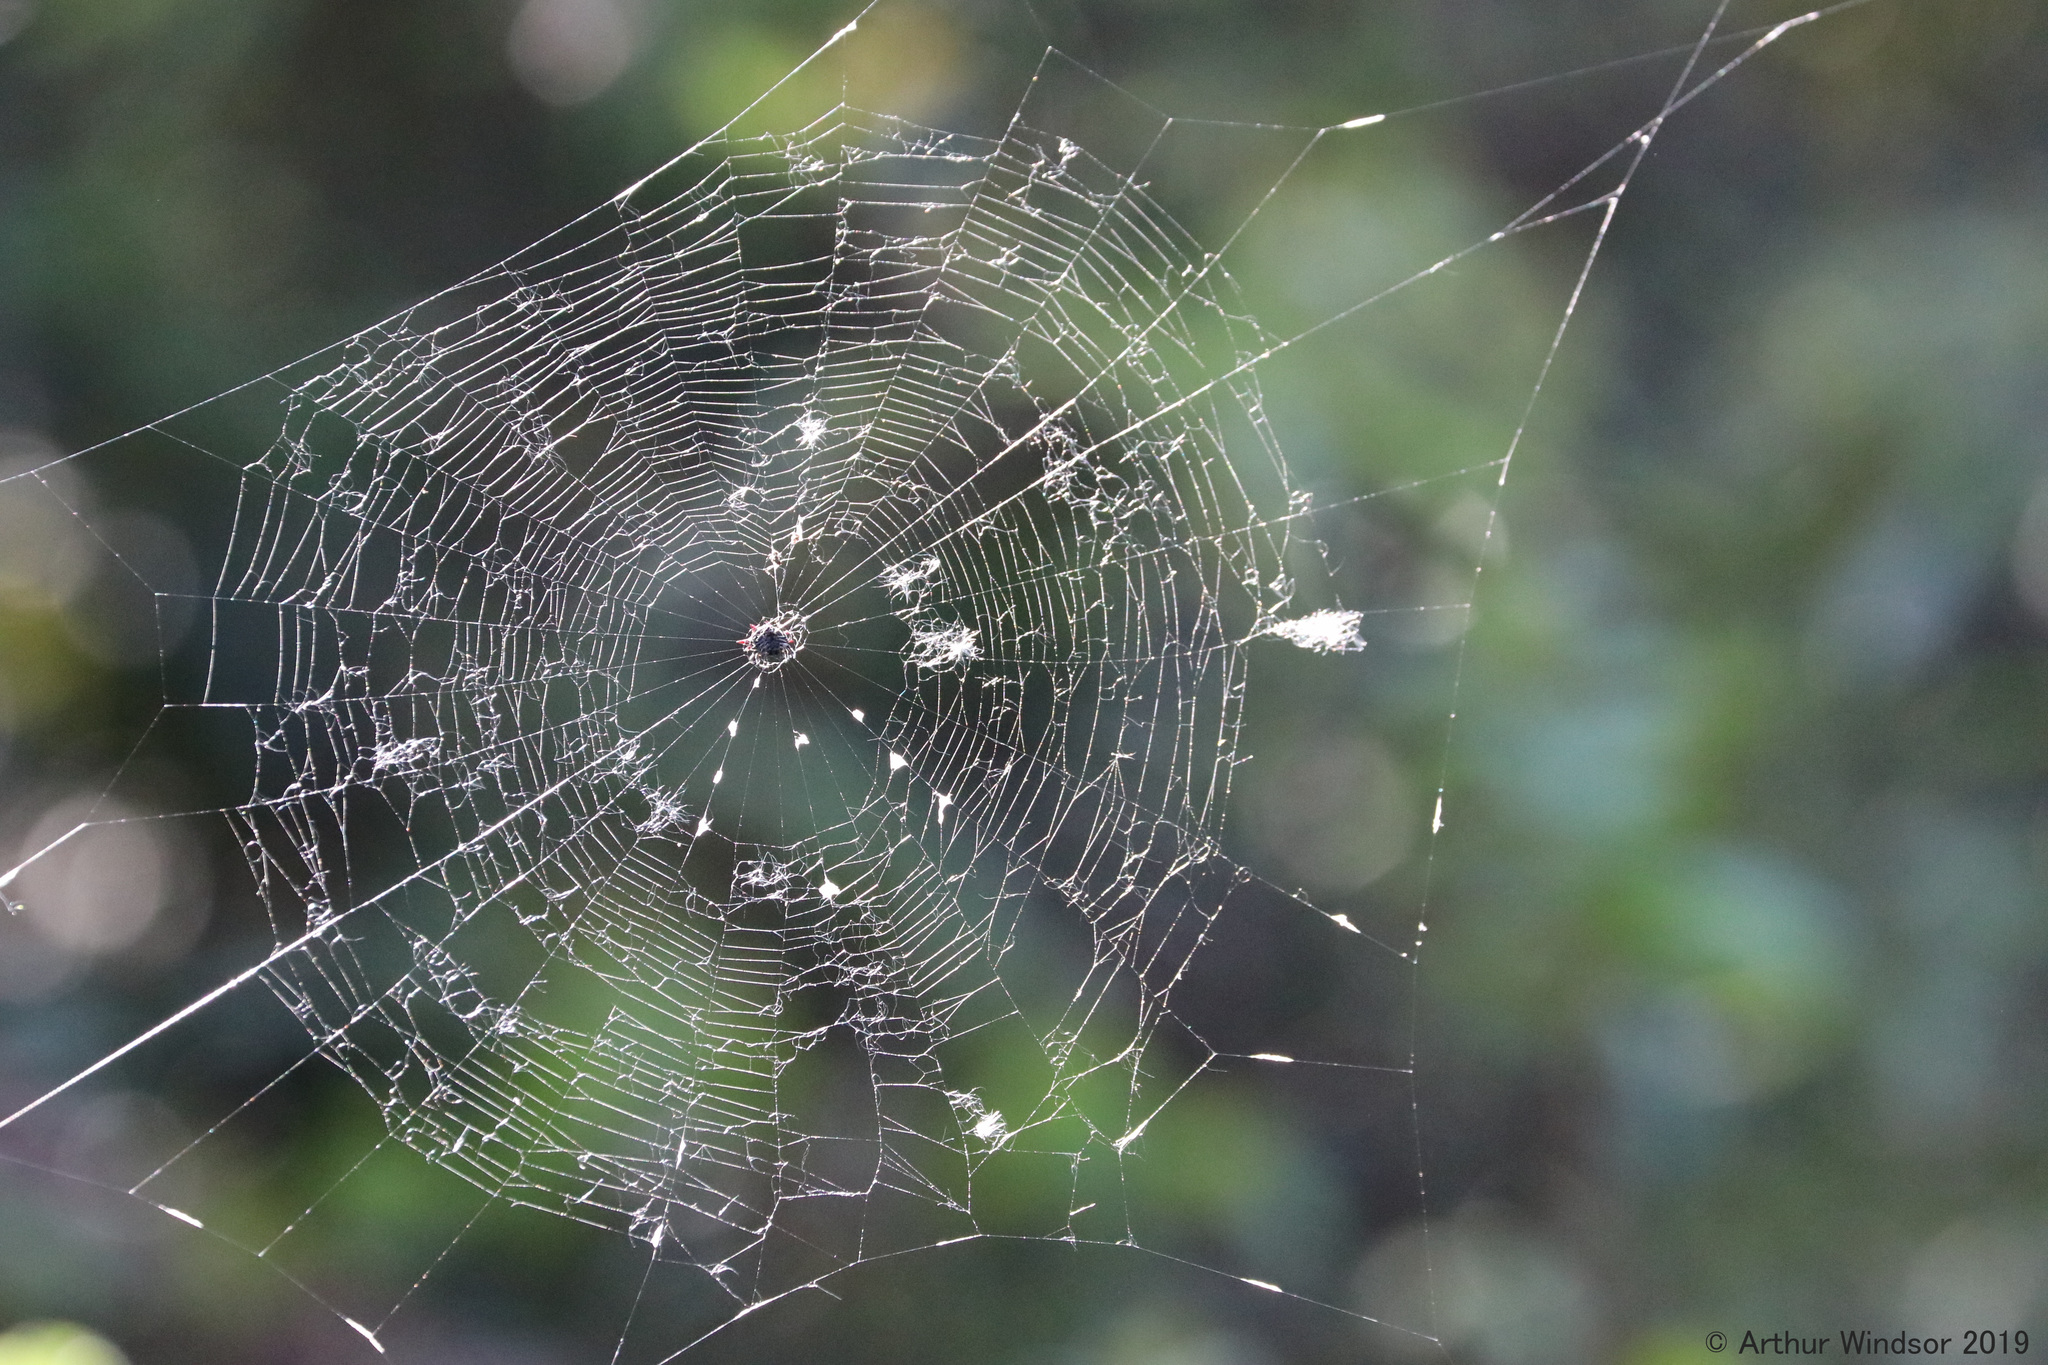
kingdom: Animalia
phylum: Arthropoda
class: Arachnida
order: Araneae
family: Araneidae
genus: Gasteracantha
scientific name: Gasteracantha cancriformis
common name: Orb weavers
